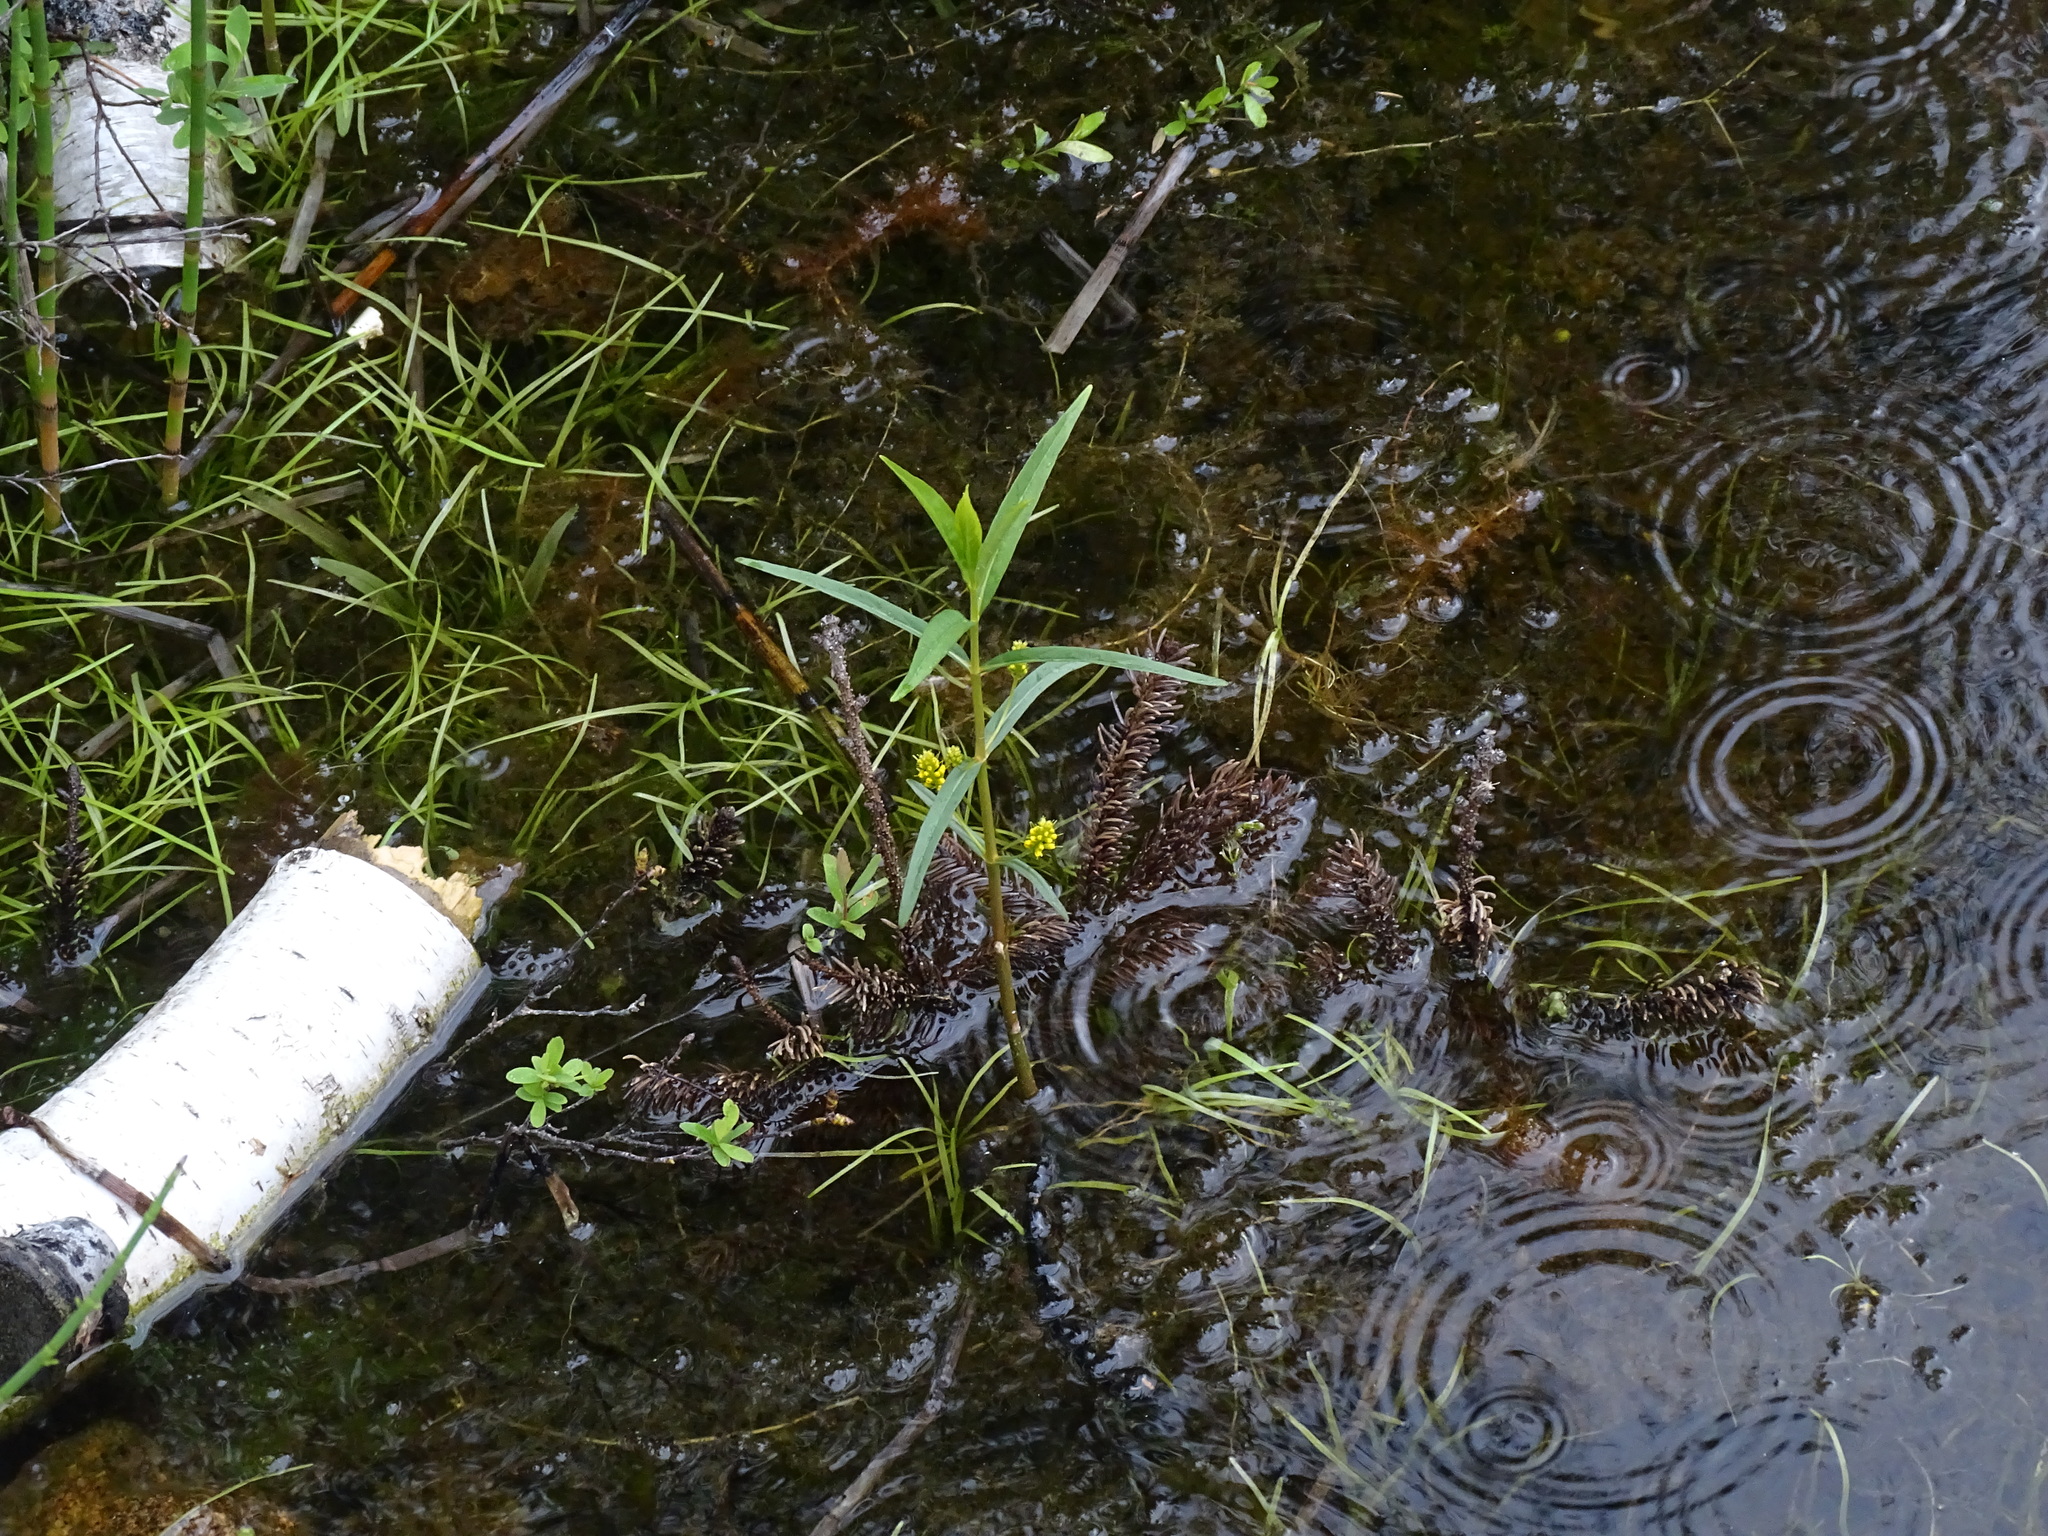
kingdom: Plantae
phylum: Tracheophyta
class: Magnoliopsida
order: Ericales
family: Primulaceae
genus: Lysimachia
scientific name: Lysimachia thyrsiflora
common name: Tufted loosestrife
